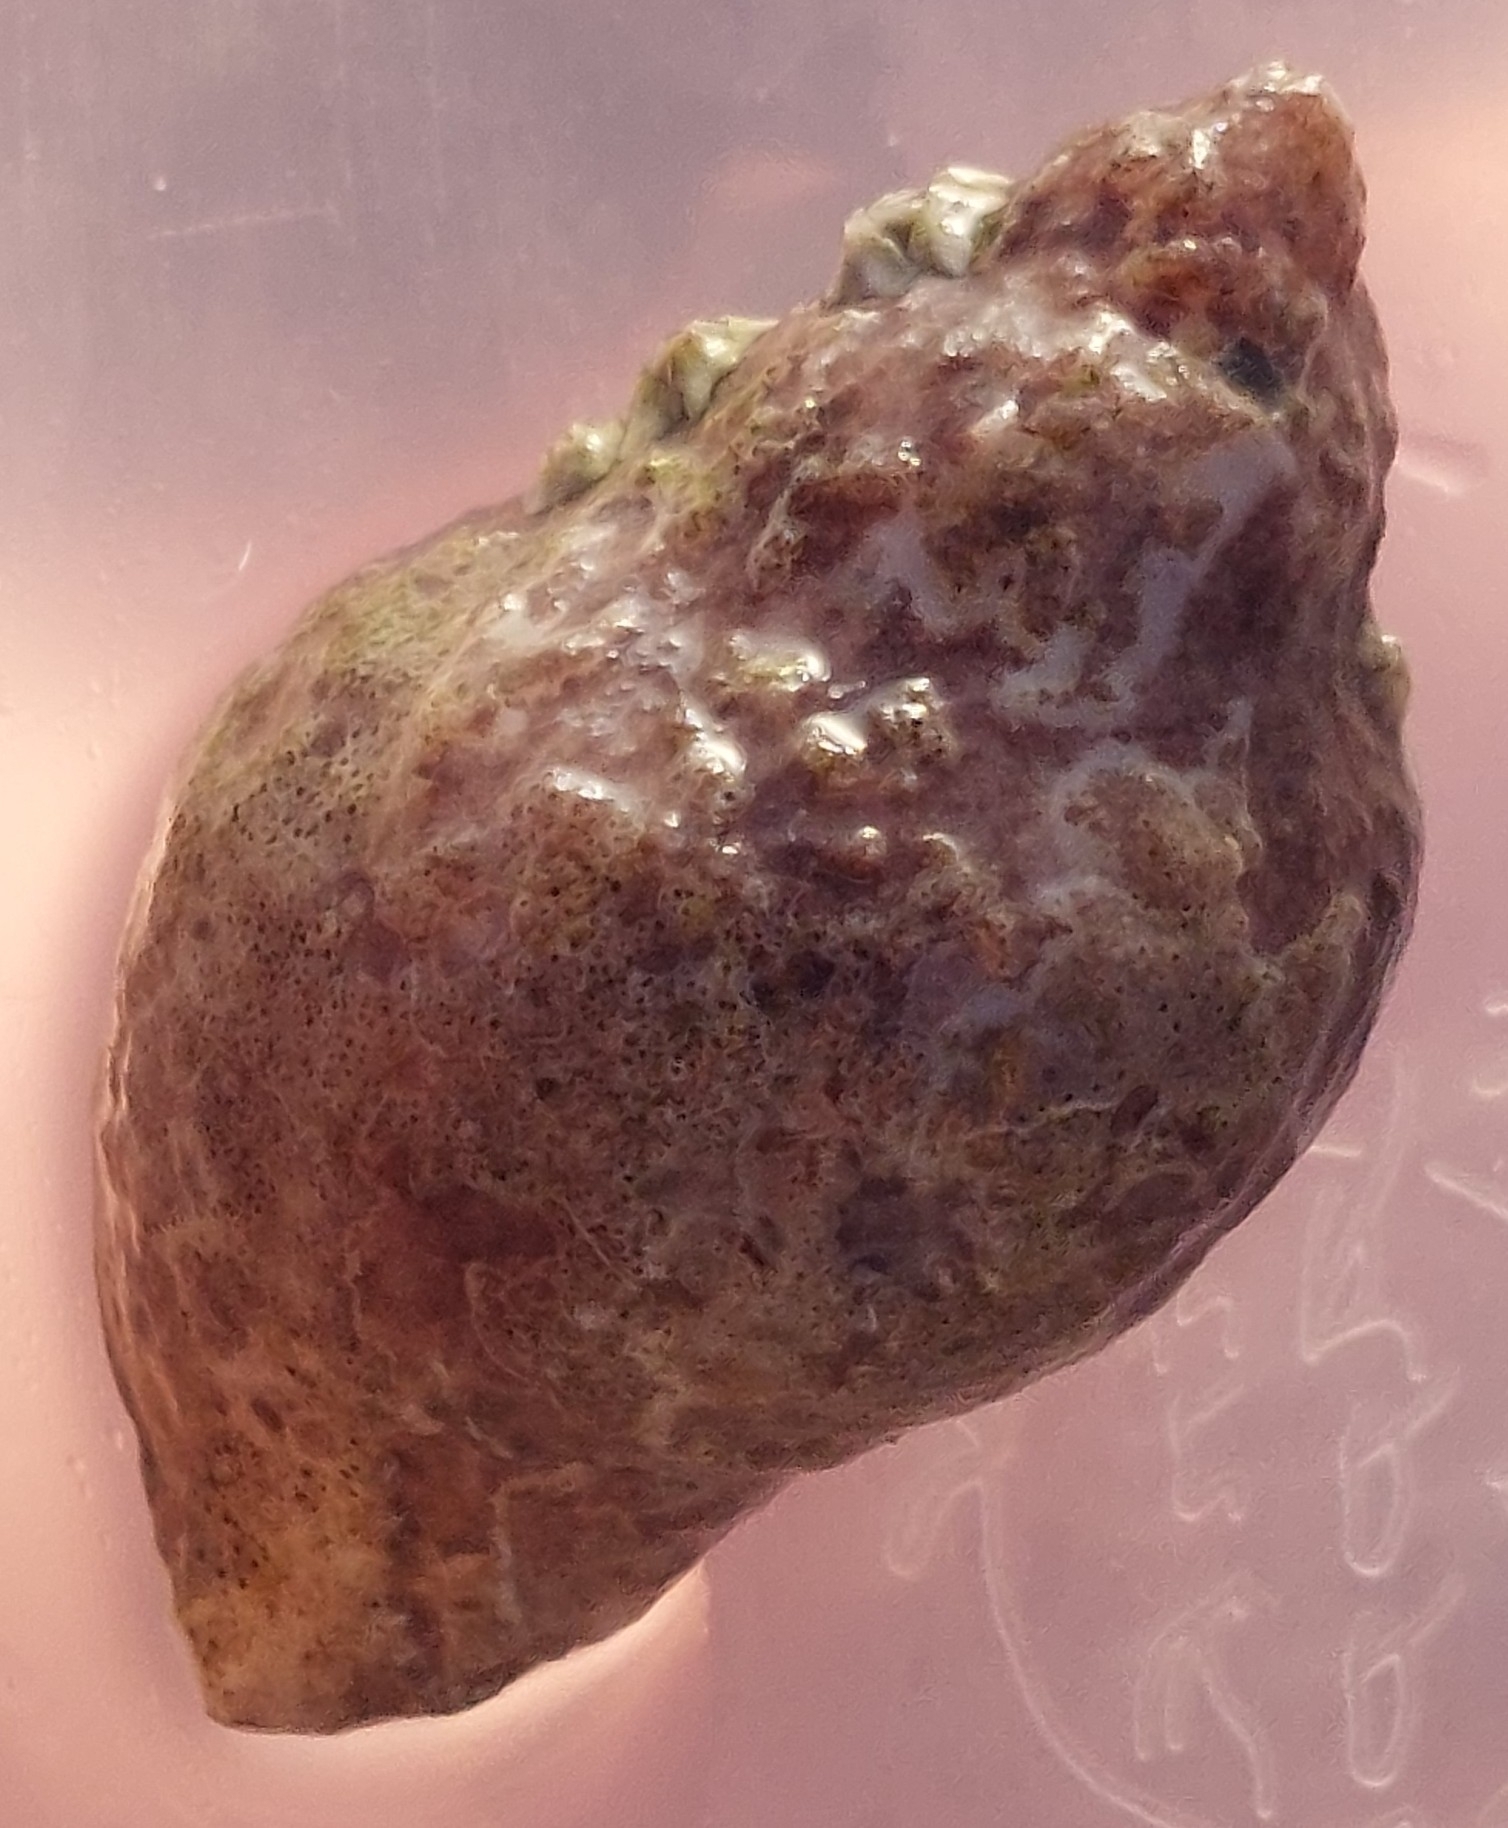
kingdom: Animalia
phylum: Mollusca
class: Gastropoda
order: Neogastropoda
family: Muricidae
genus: Nucella
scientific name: Nucella lapillus
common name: Dog whelk
